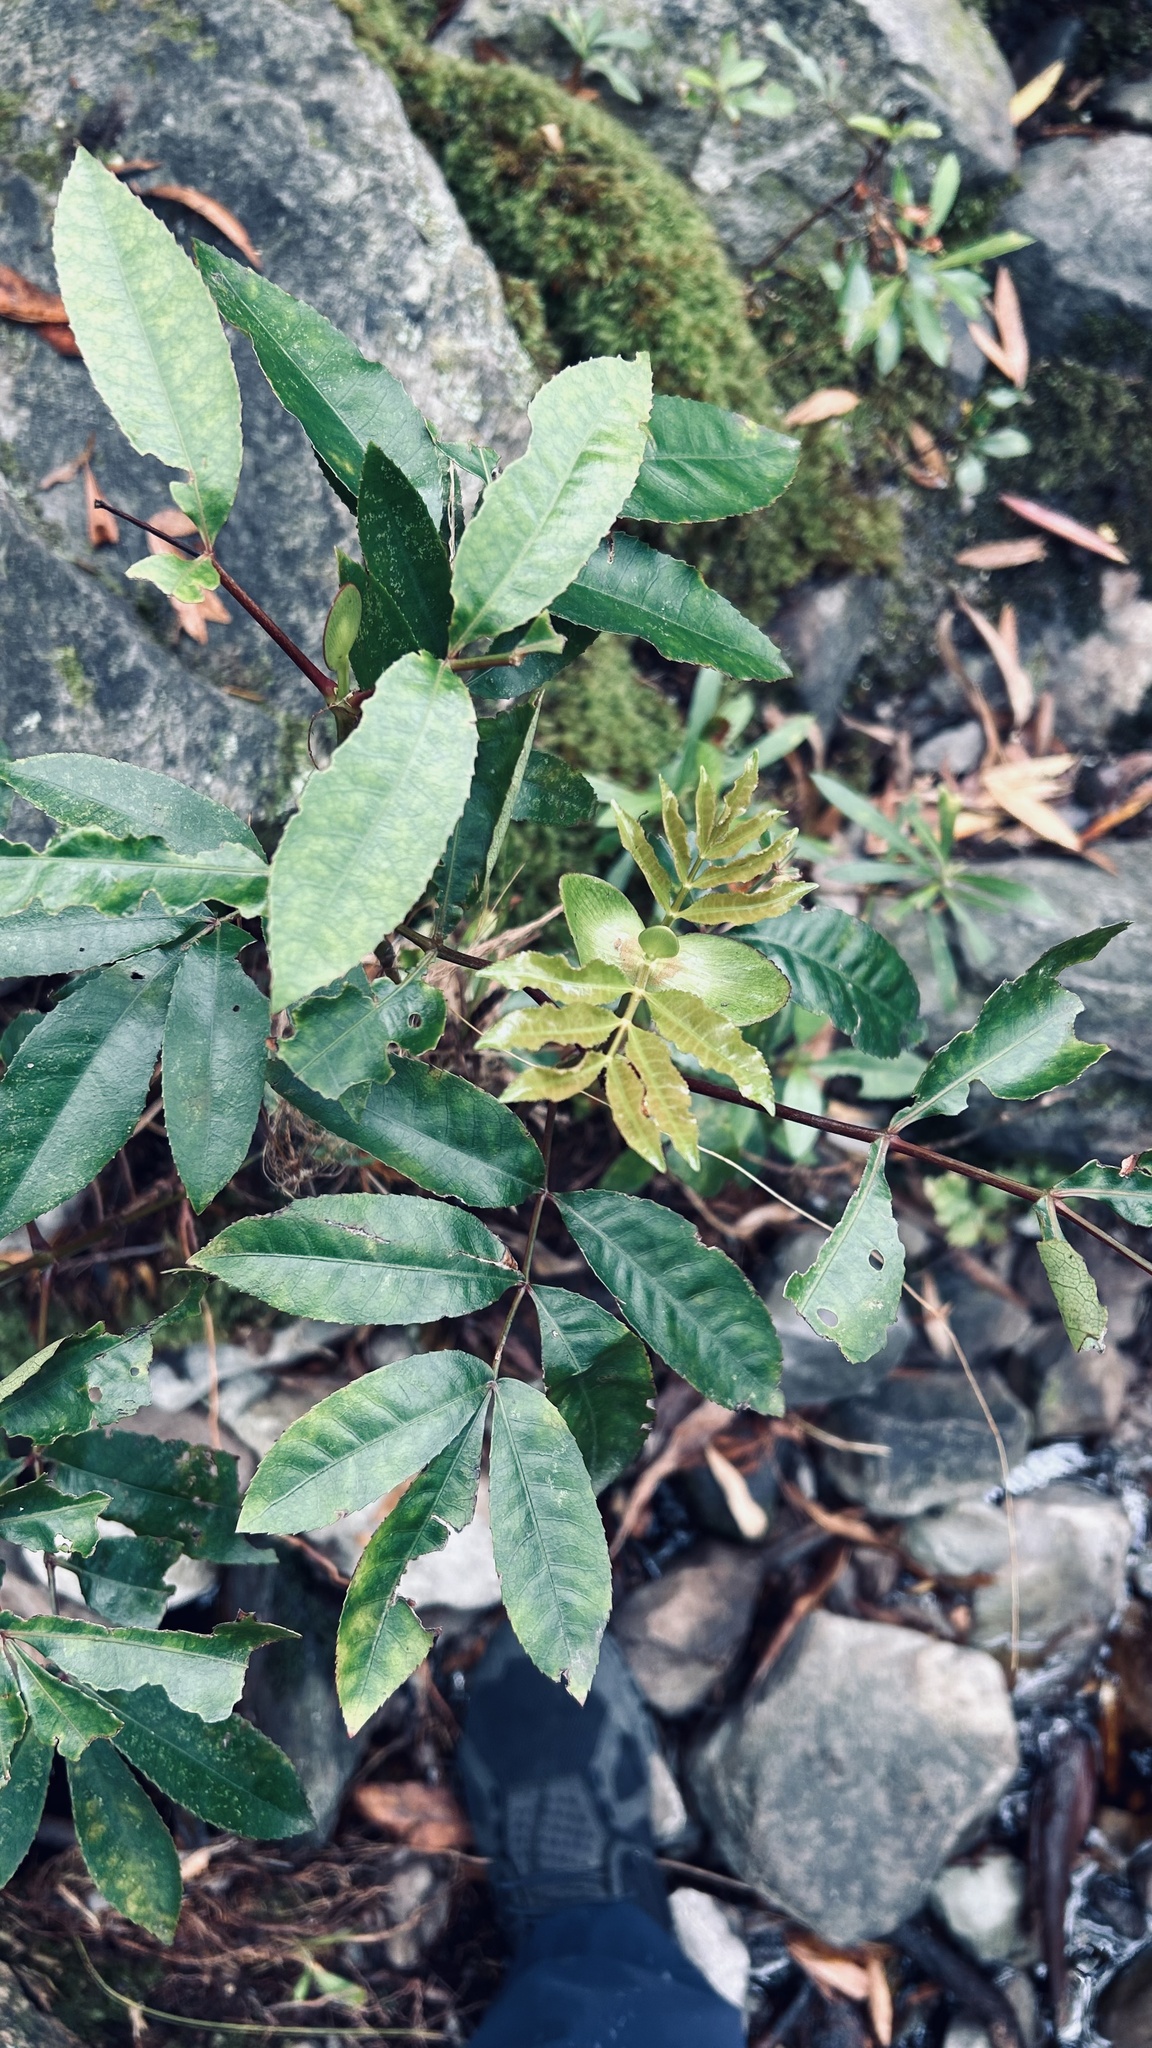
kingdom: Plantae
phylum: Tracheophyta
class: Magnoliopsida
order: Oxalidales
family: Cunoniaceae
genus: Cunonia
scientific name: Cunonia capensis
